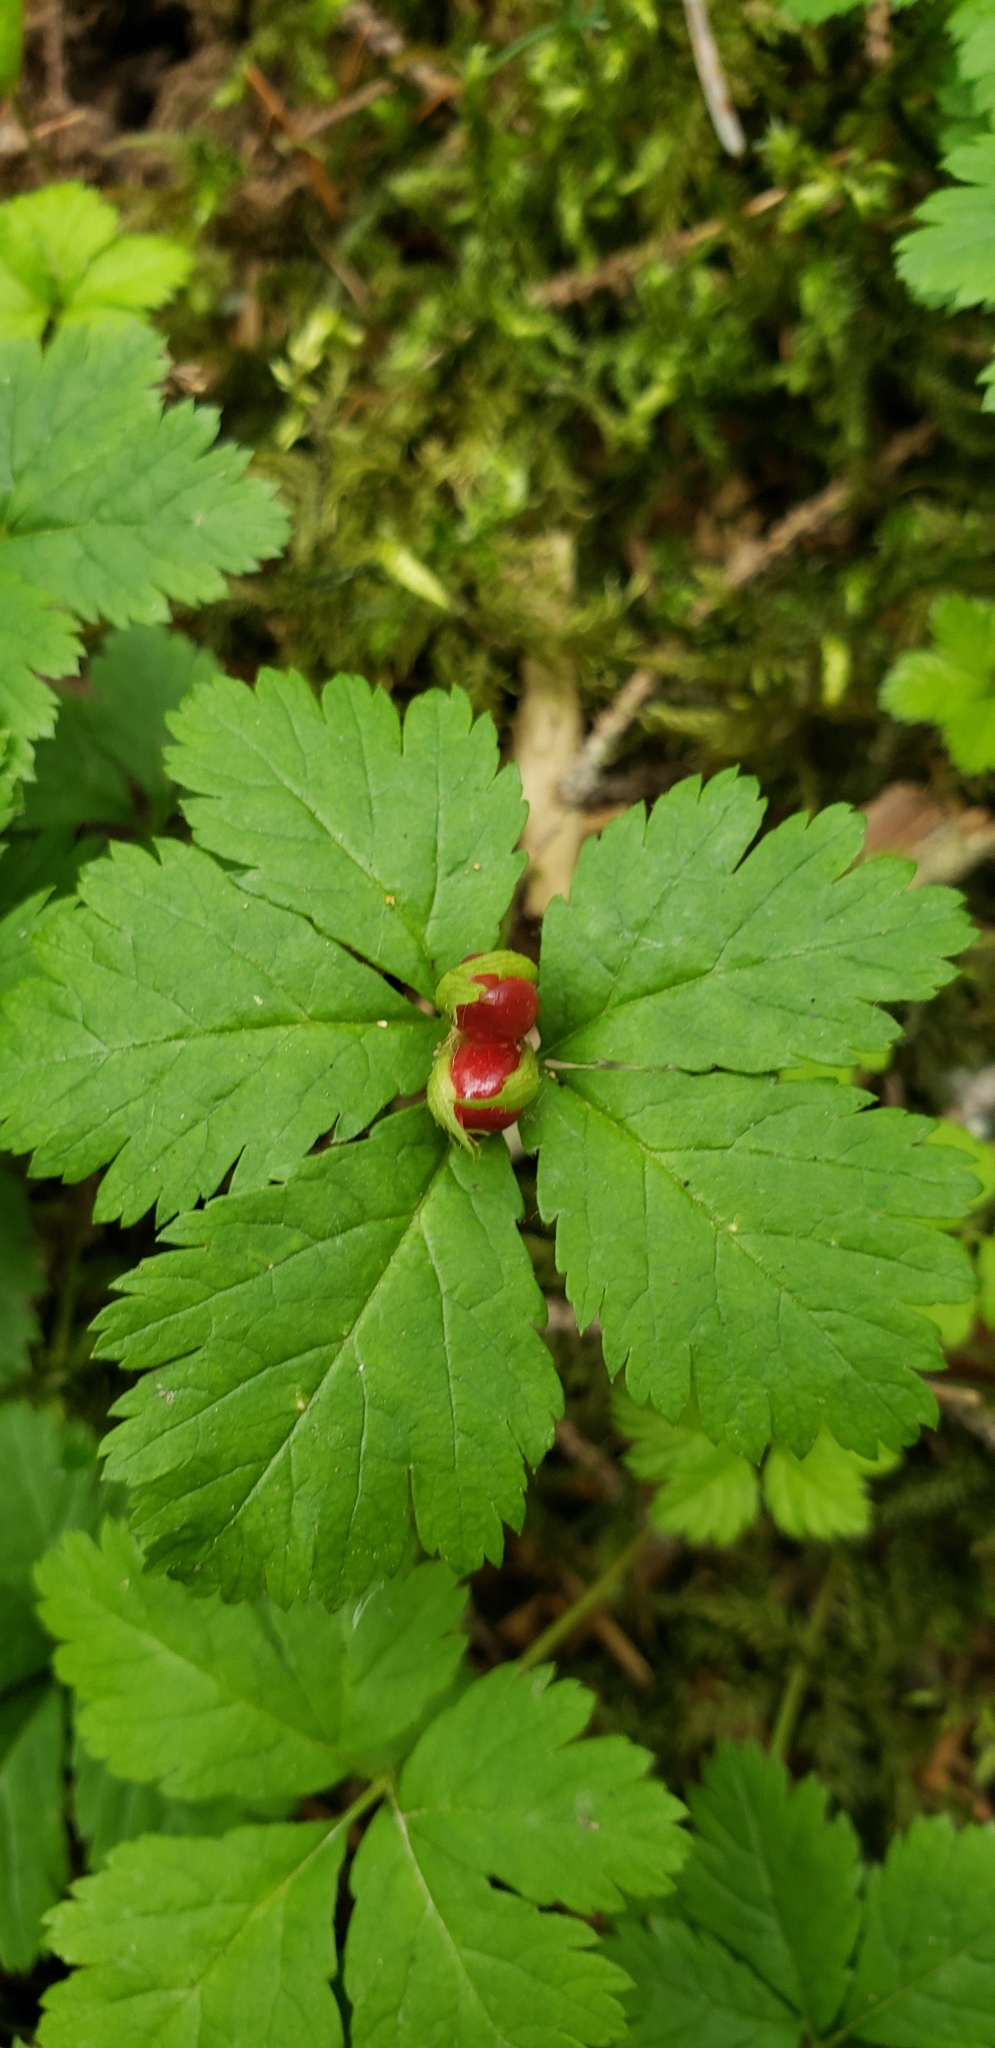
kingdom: Plantae
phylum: Tracheophyta
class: Magnoliopsida
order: Rosales
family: Rosaceae
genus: Rubus
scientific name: Rubus pedatus
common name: Creeping raspberry
